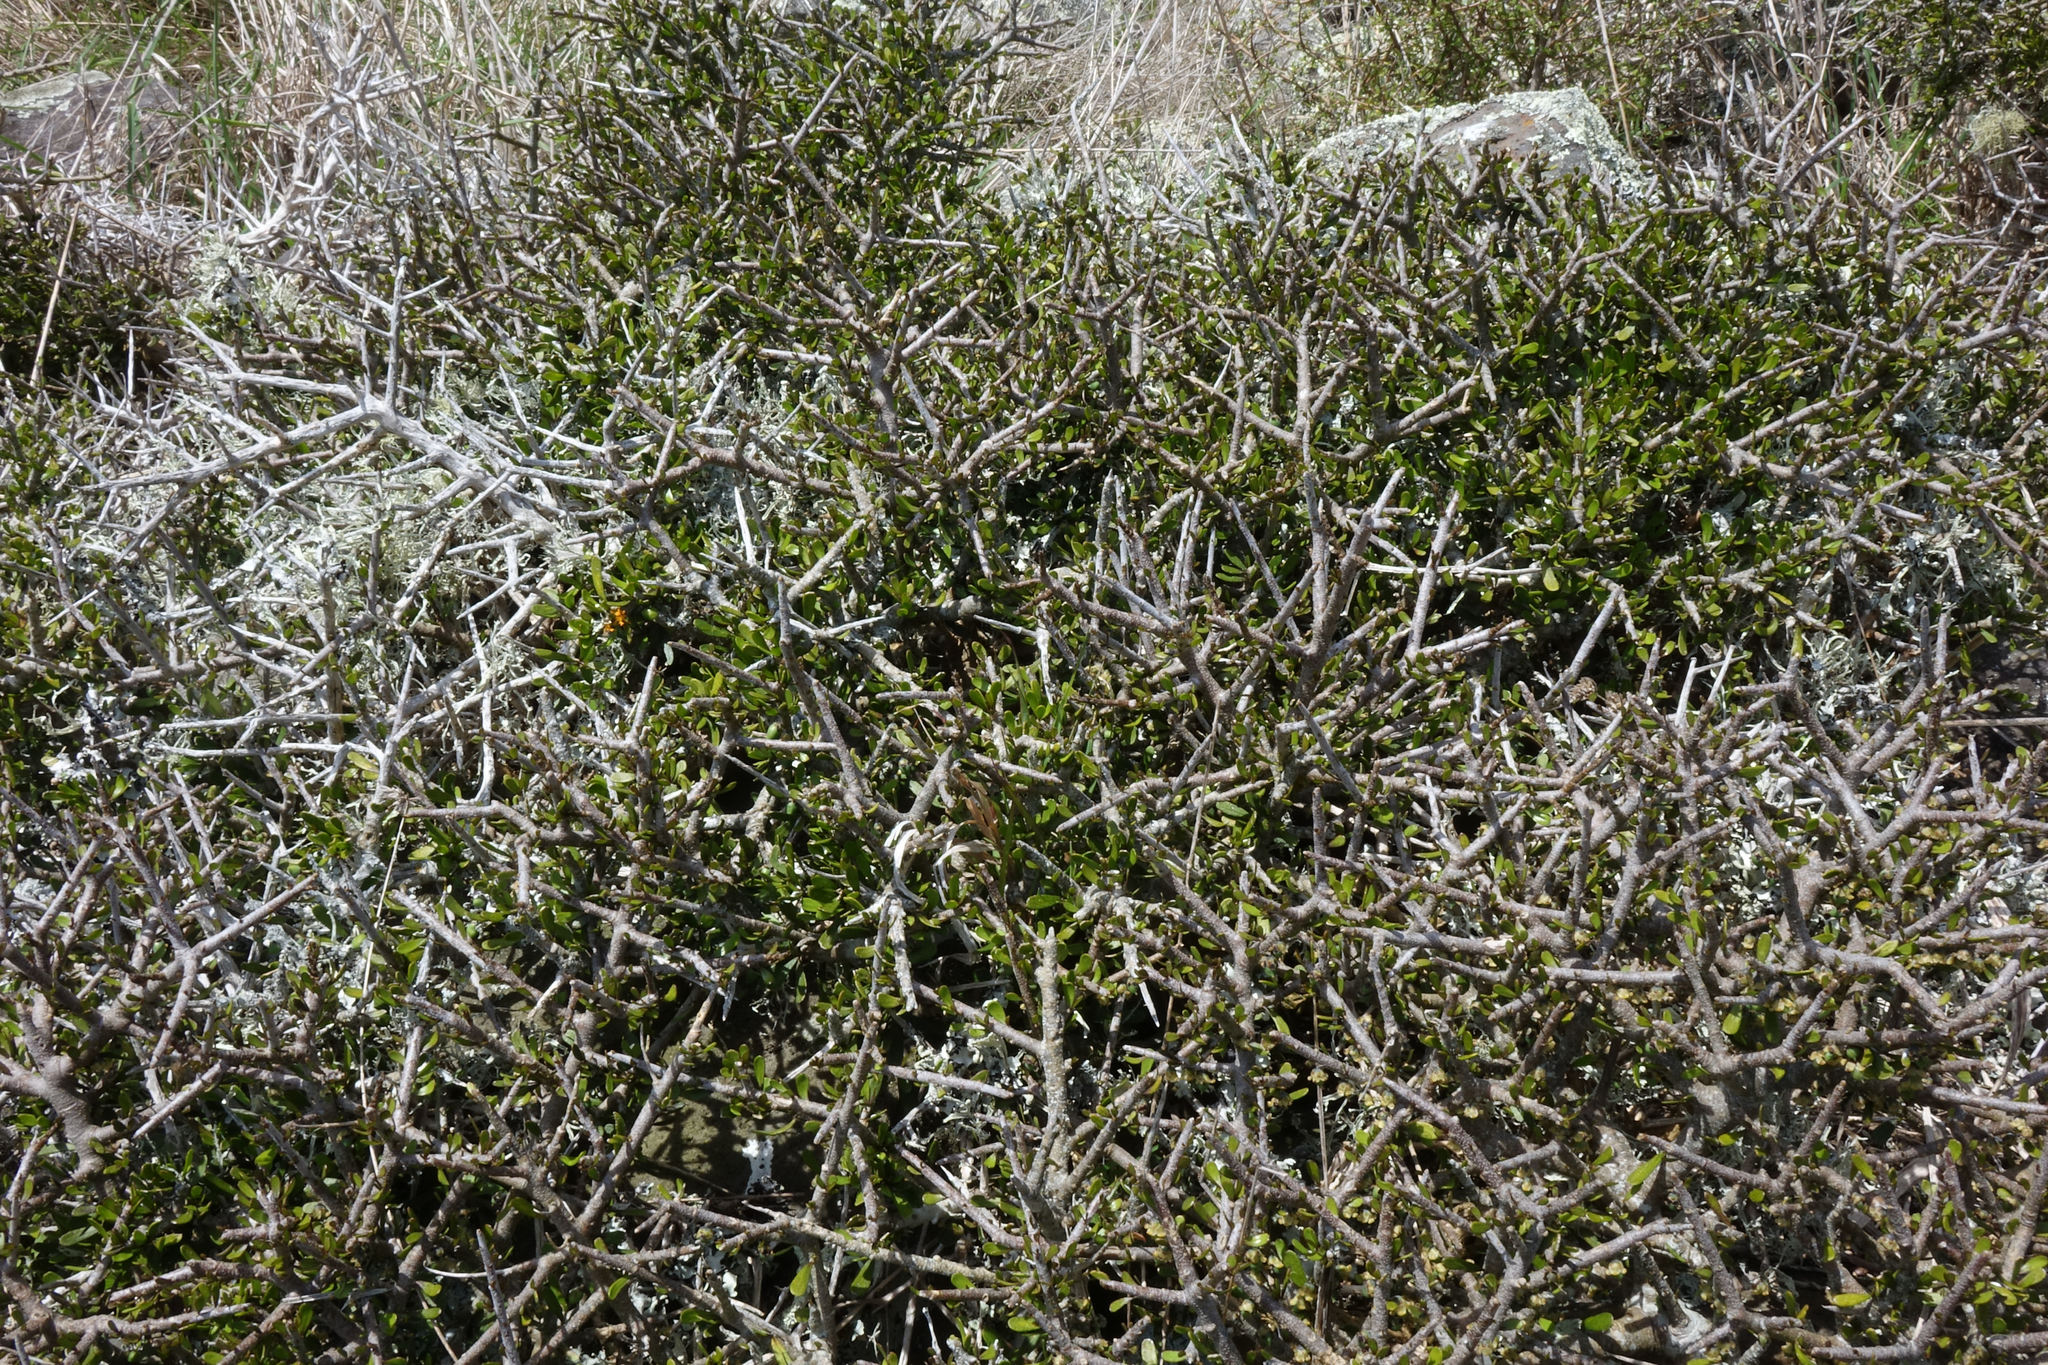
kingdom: Plantae
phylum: Tracheophyta
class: Magnoliopsida
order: Malpighiales
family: Violaceae
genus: Melicytus
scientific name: Melicytus alpinus
